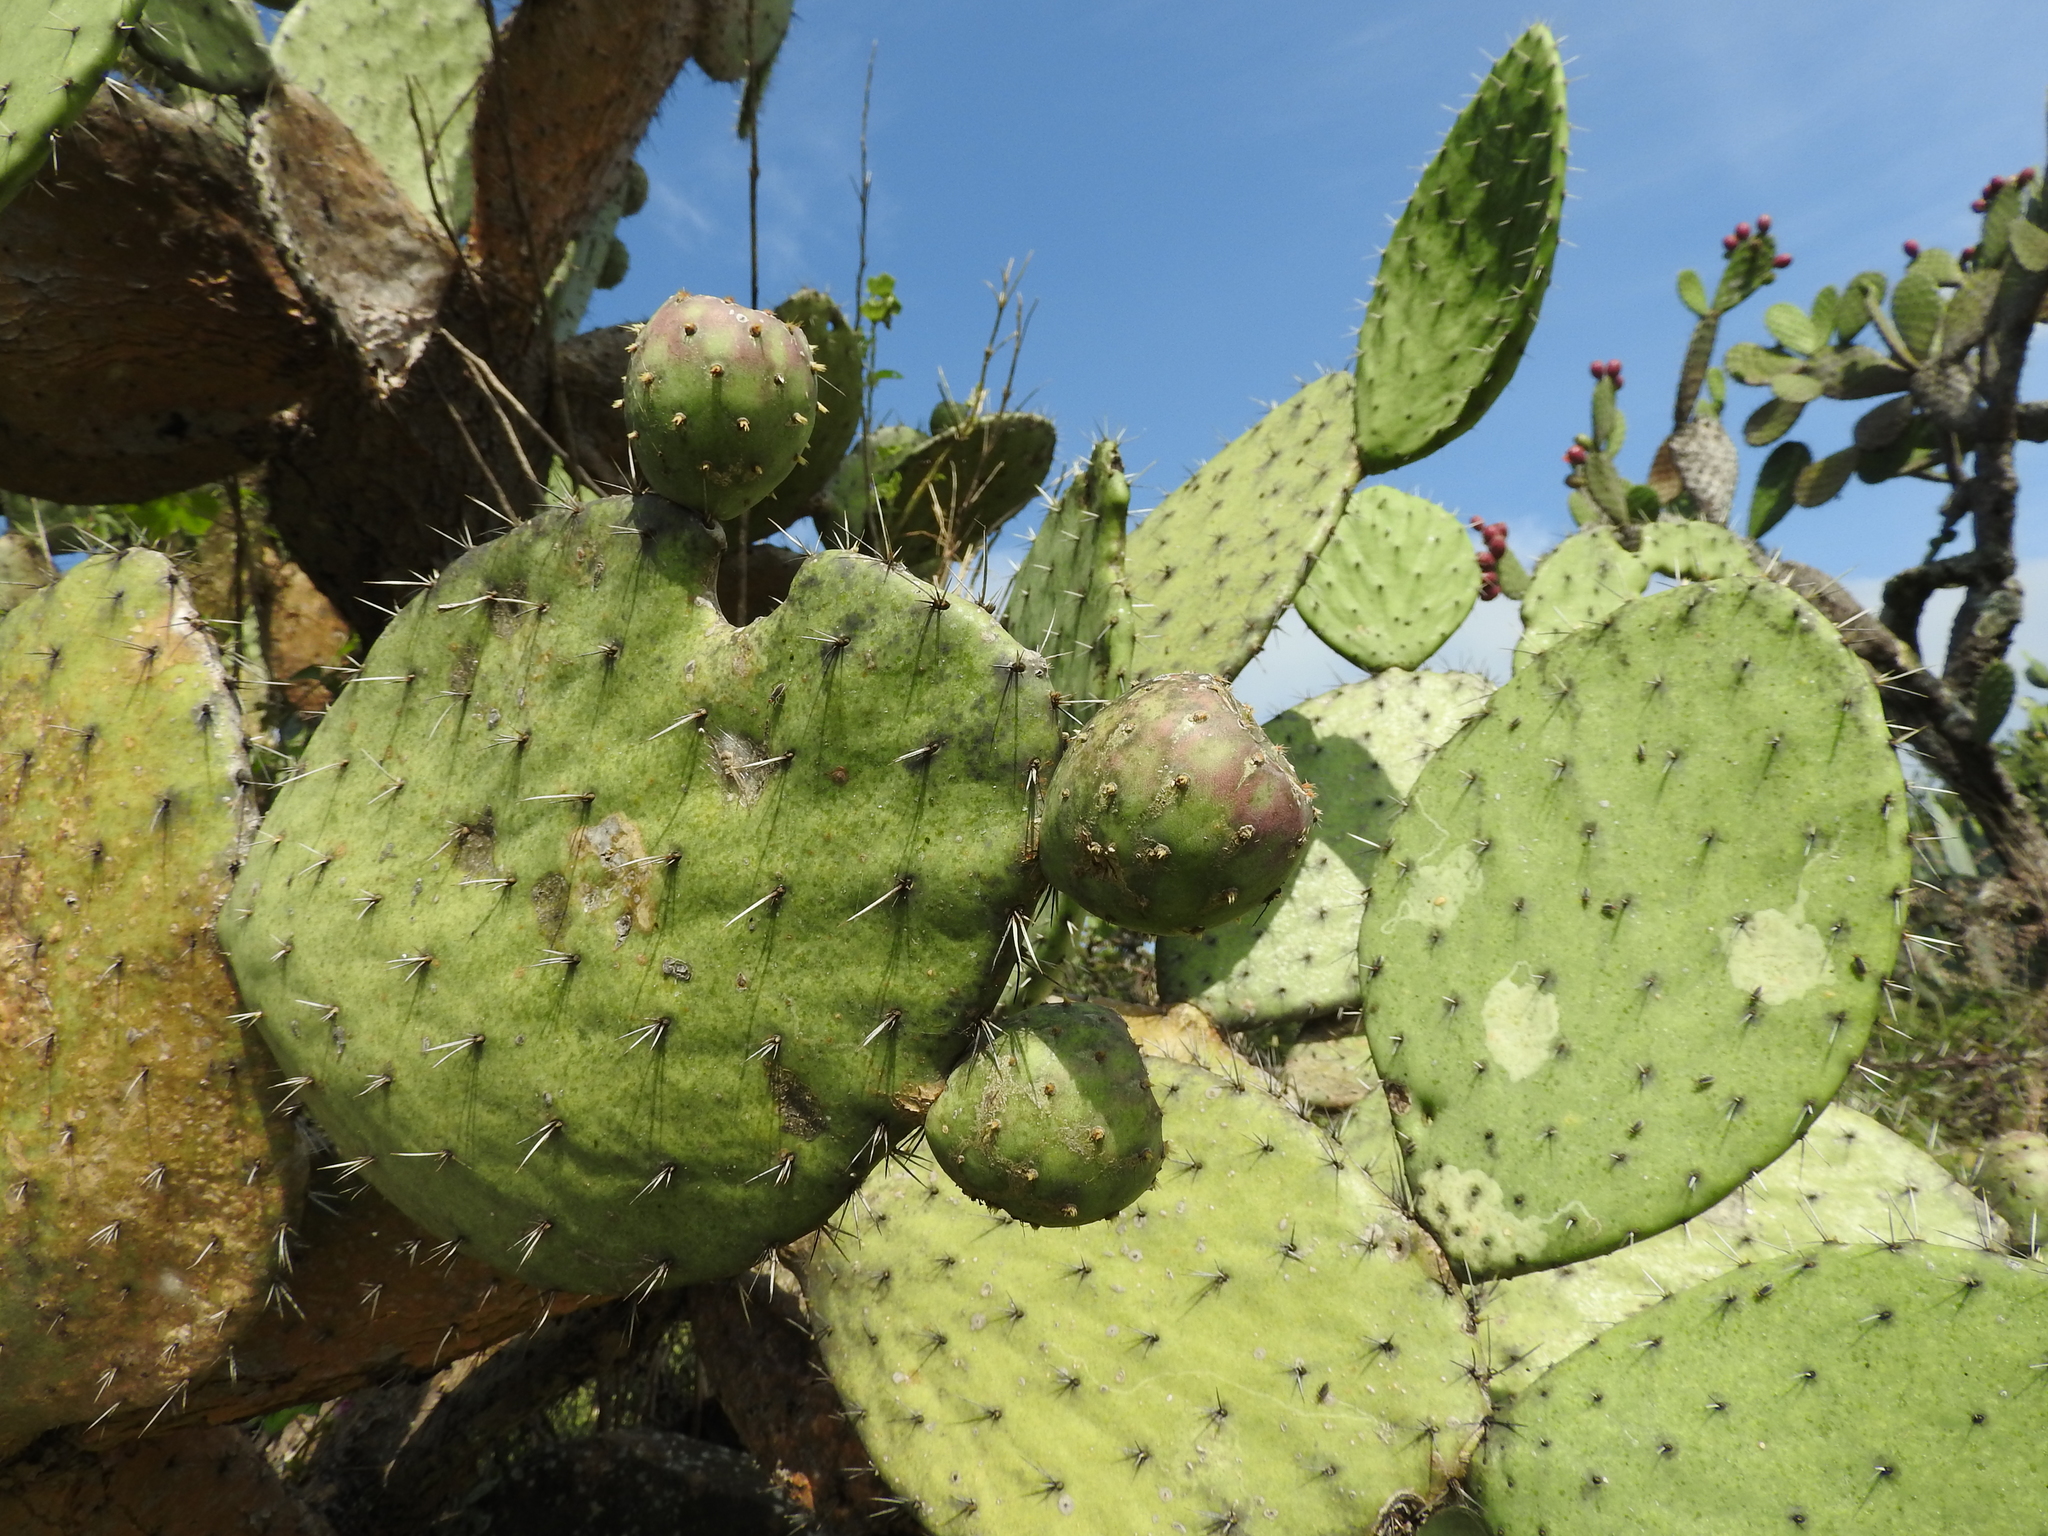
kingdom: Plantae
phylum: Tracheophyta
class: Magnoliopsida
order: Caryophyllales
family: Cactaceae
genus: Opuntia
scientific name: Opuntia joconostle
